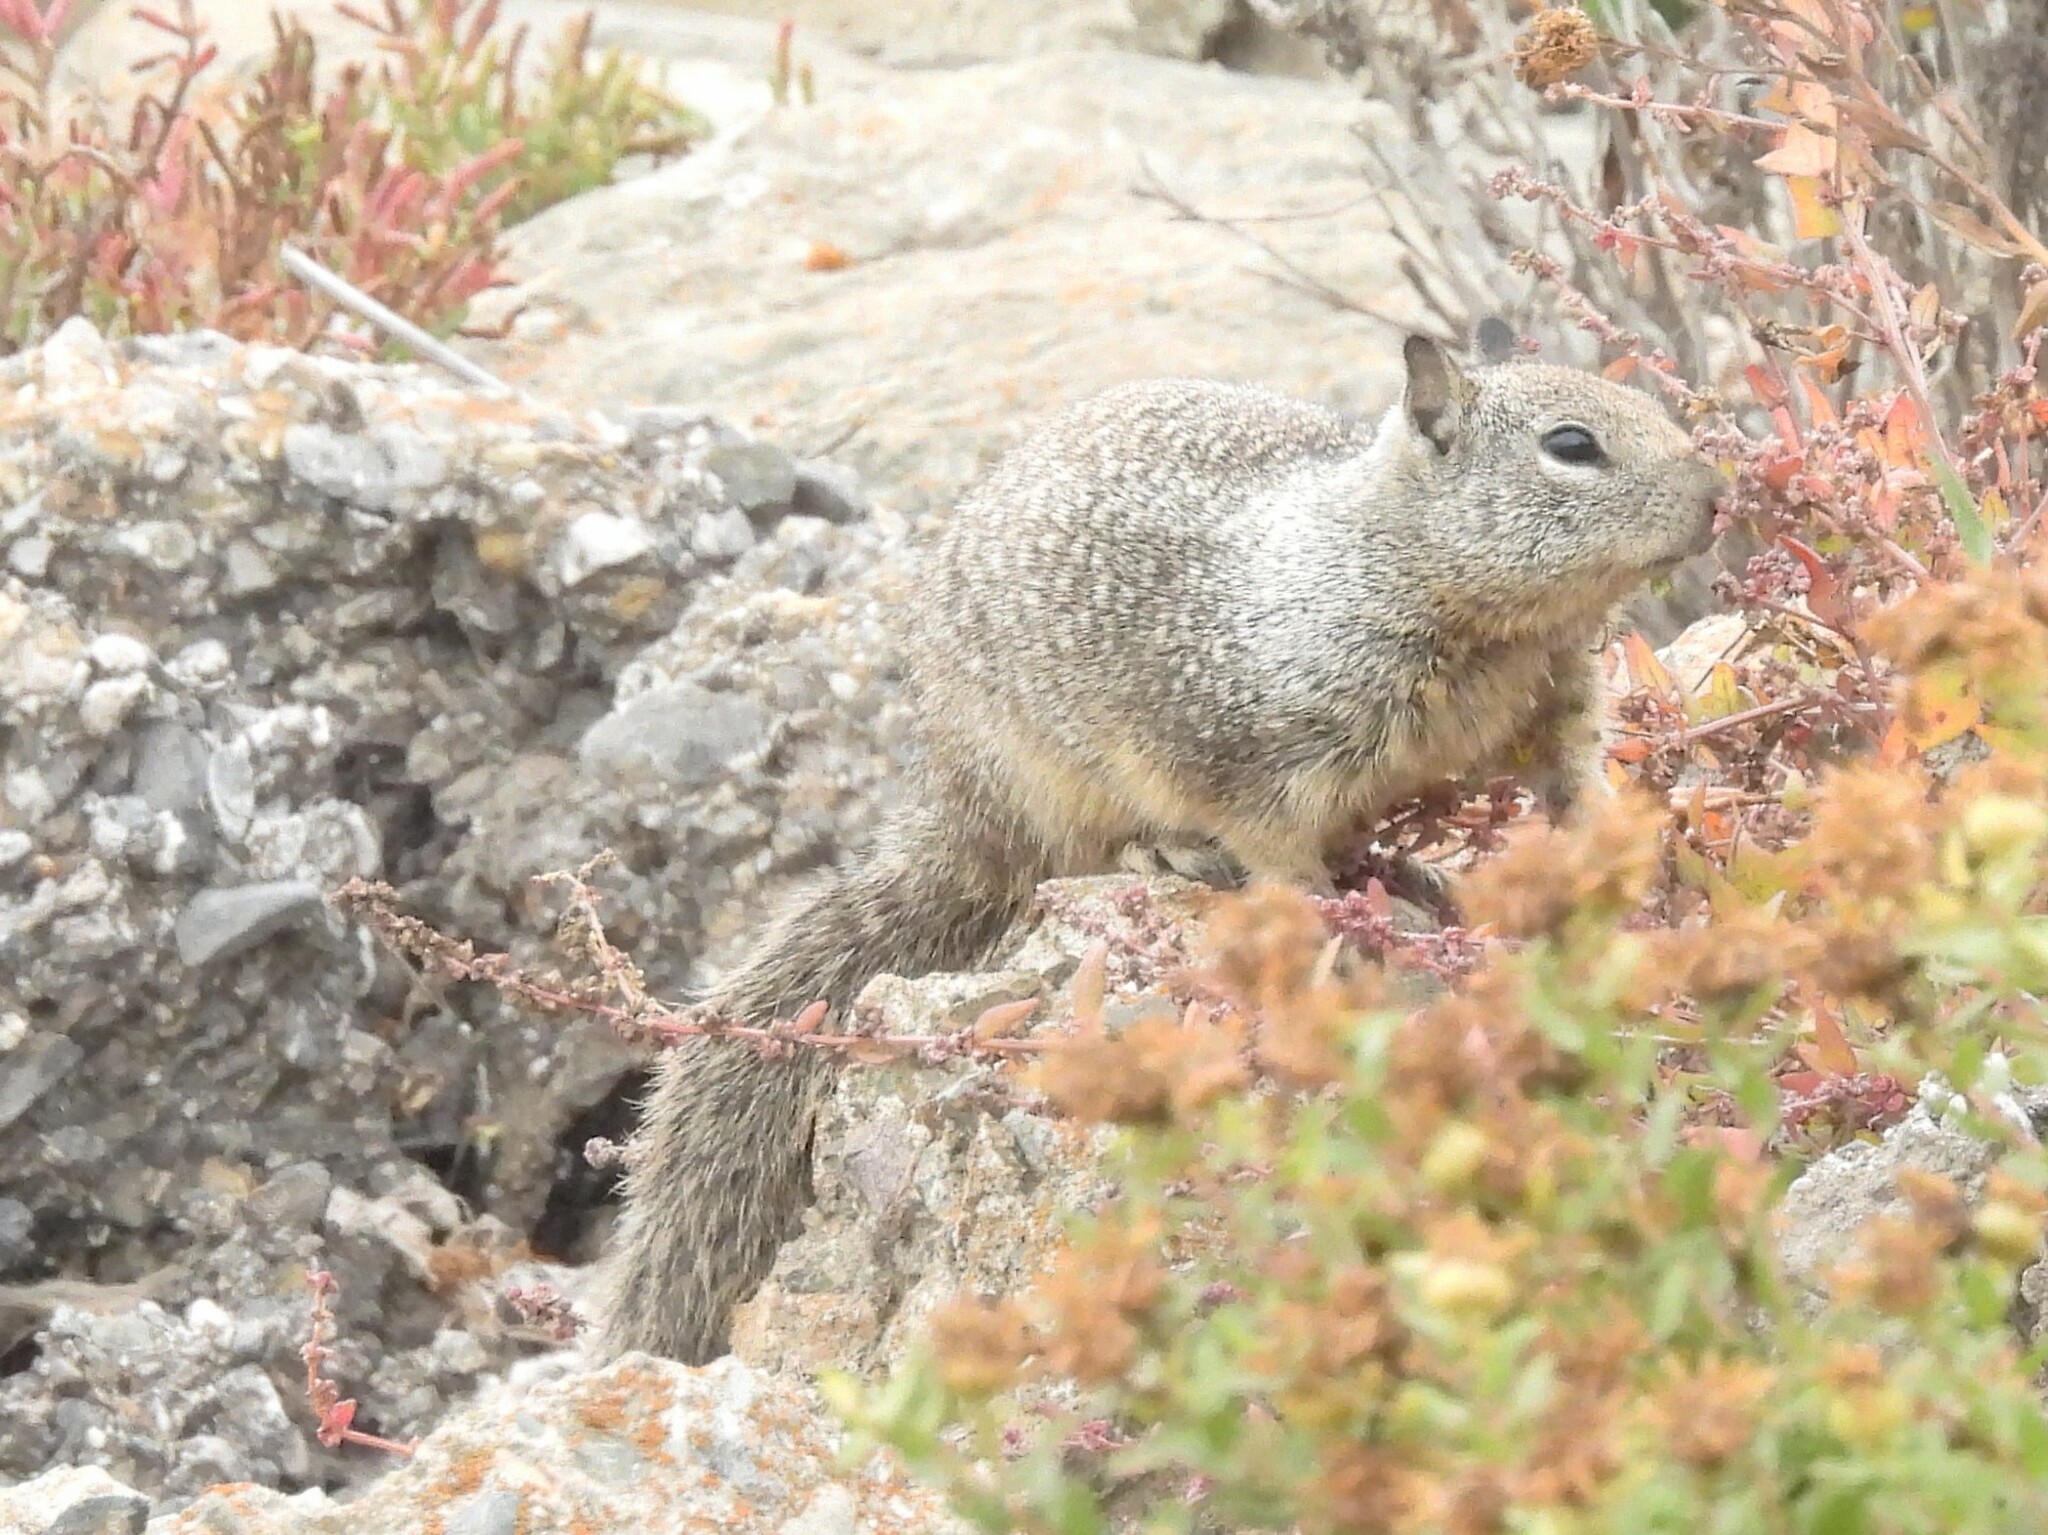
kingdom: Animalia
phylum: Chordata
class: Mammalia
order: Rodentia
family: Sciuridae
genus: Otospermophilus
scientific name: Otospermophilus beecheyi
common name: California ground squirrel
